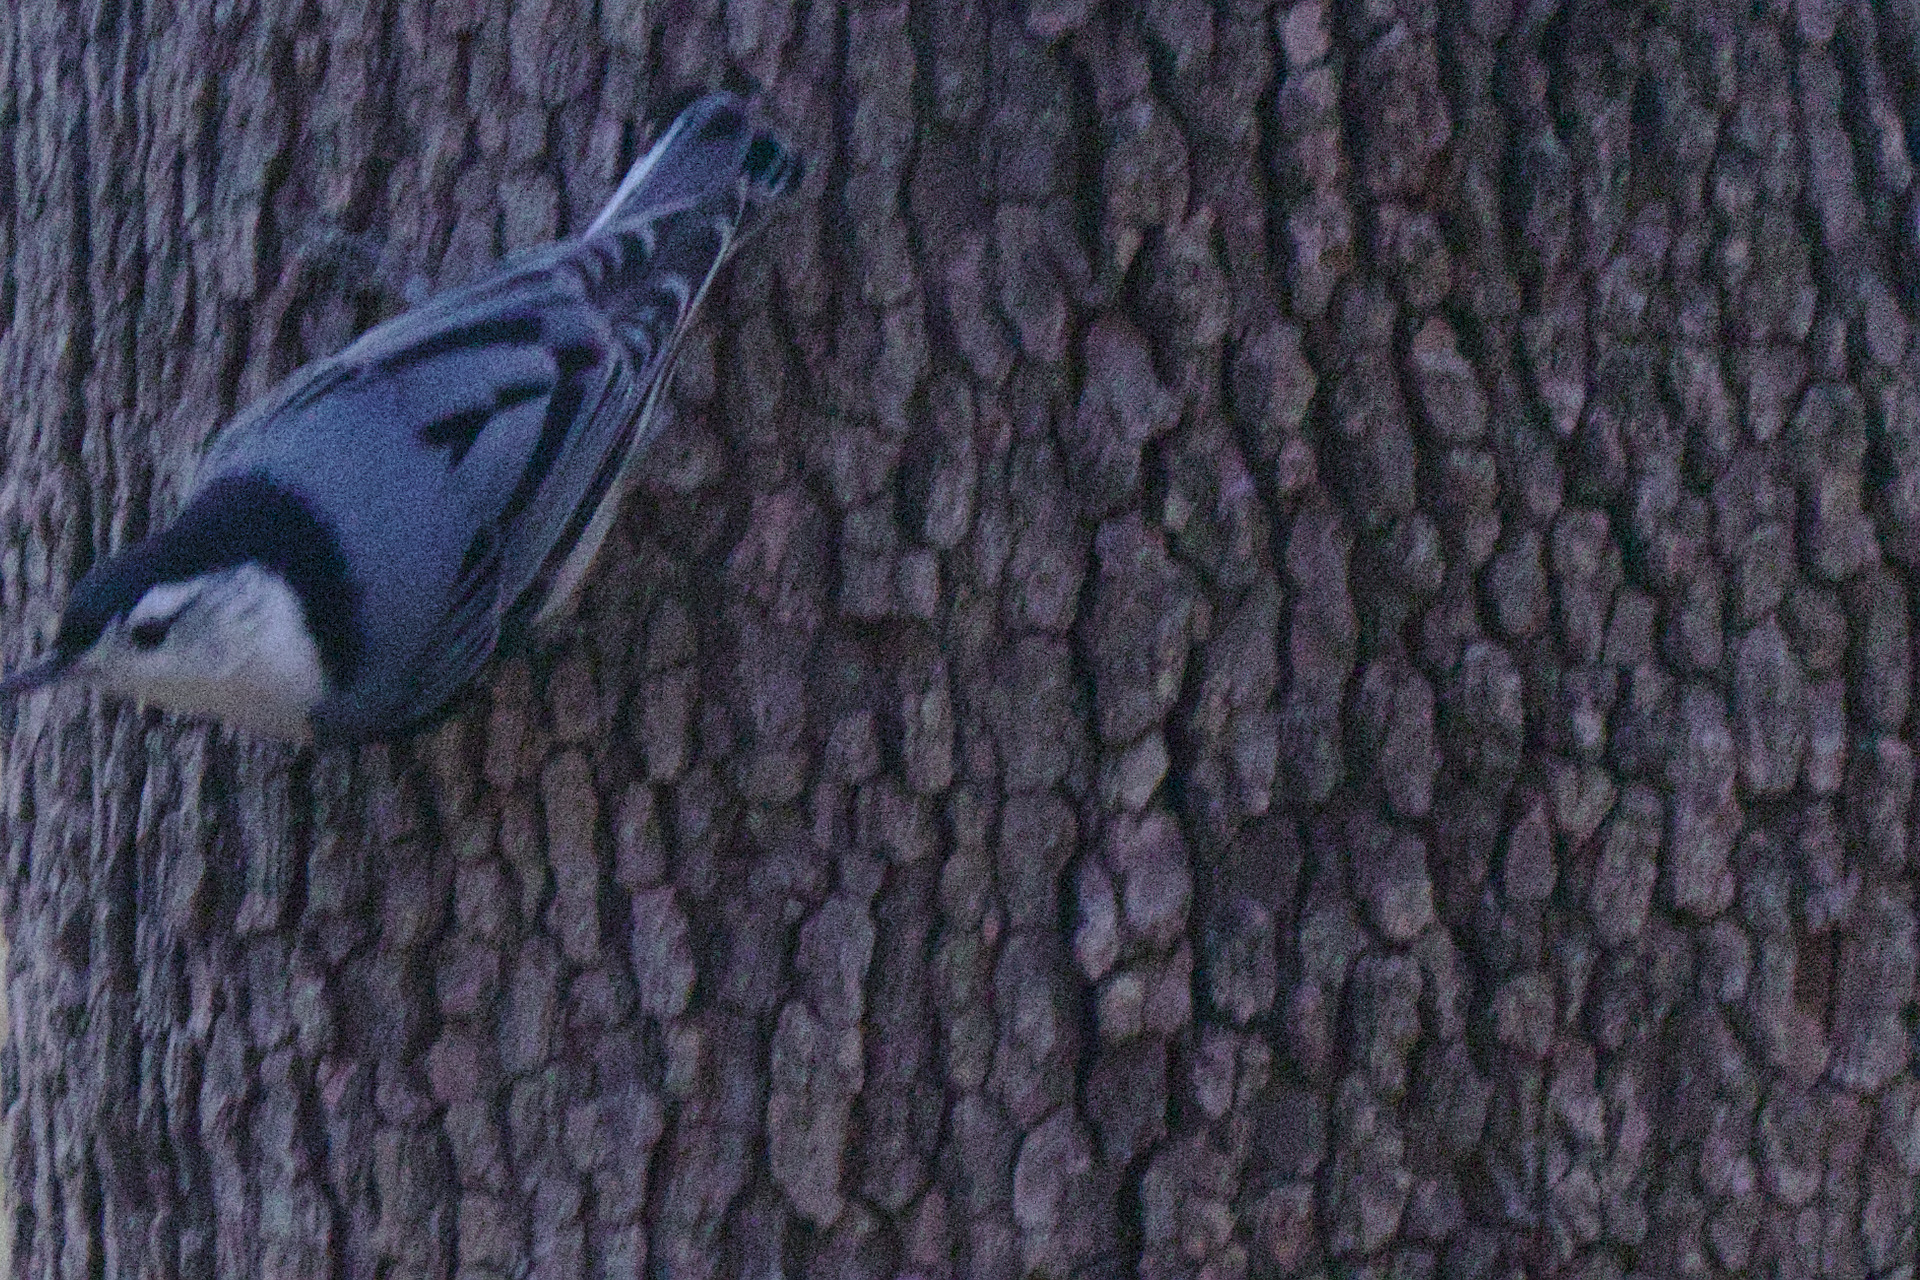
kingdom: Animalia
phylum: Chordata
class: Aves
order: Passeriformes
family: Sittidae
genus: Sitta
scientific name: Sitta carolinensis
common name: White-breasted nuthatch
